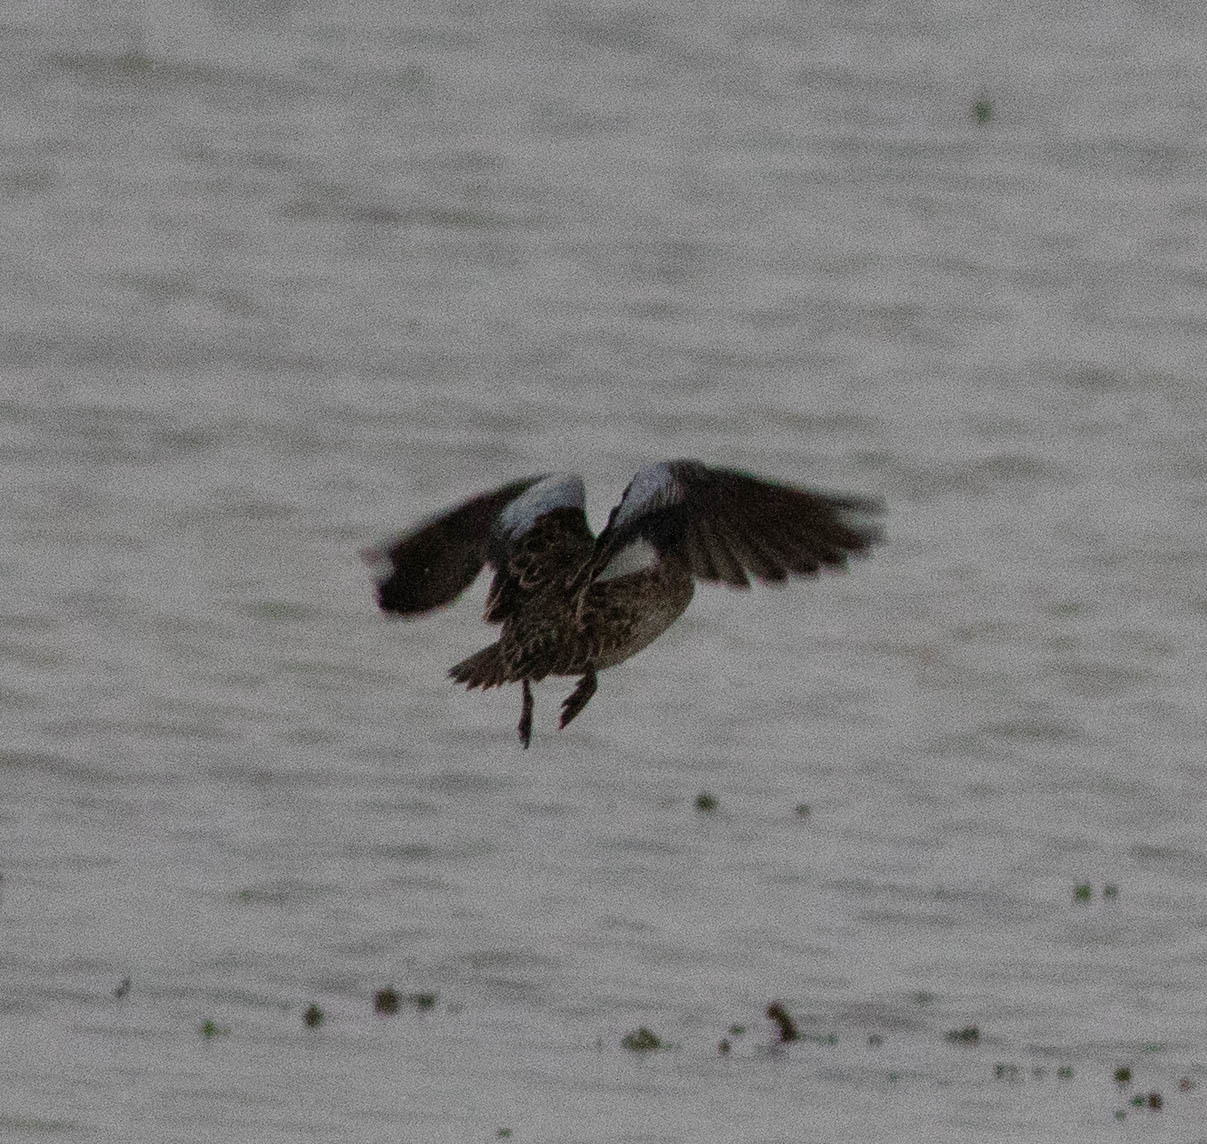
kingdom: Animalia
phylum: Chordata
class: Aves
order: Anseriformes
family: Anatidae
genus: Spatula
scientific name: Spatula discors
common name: Blue-winged teal
